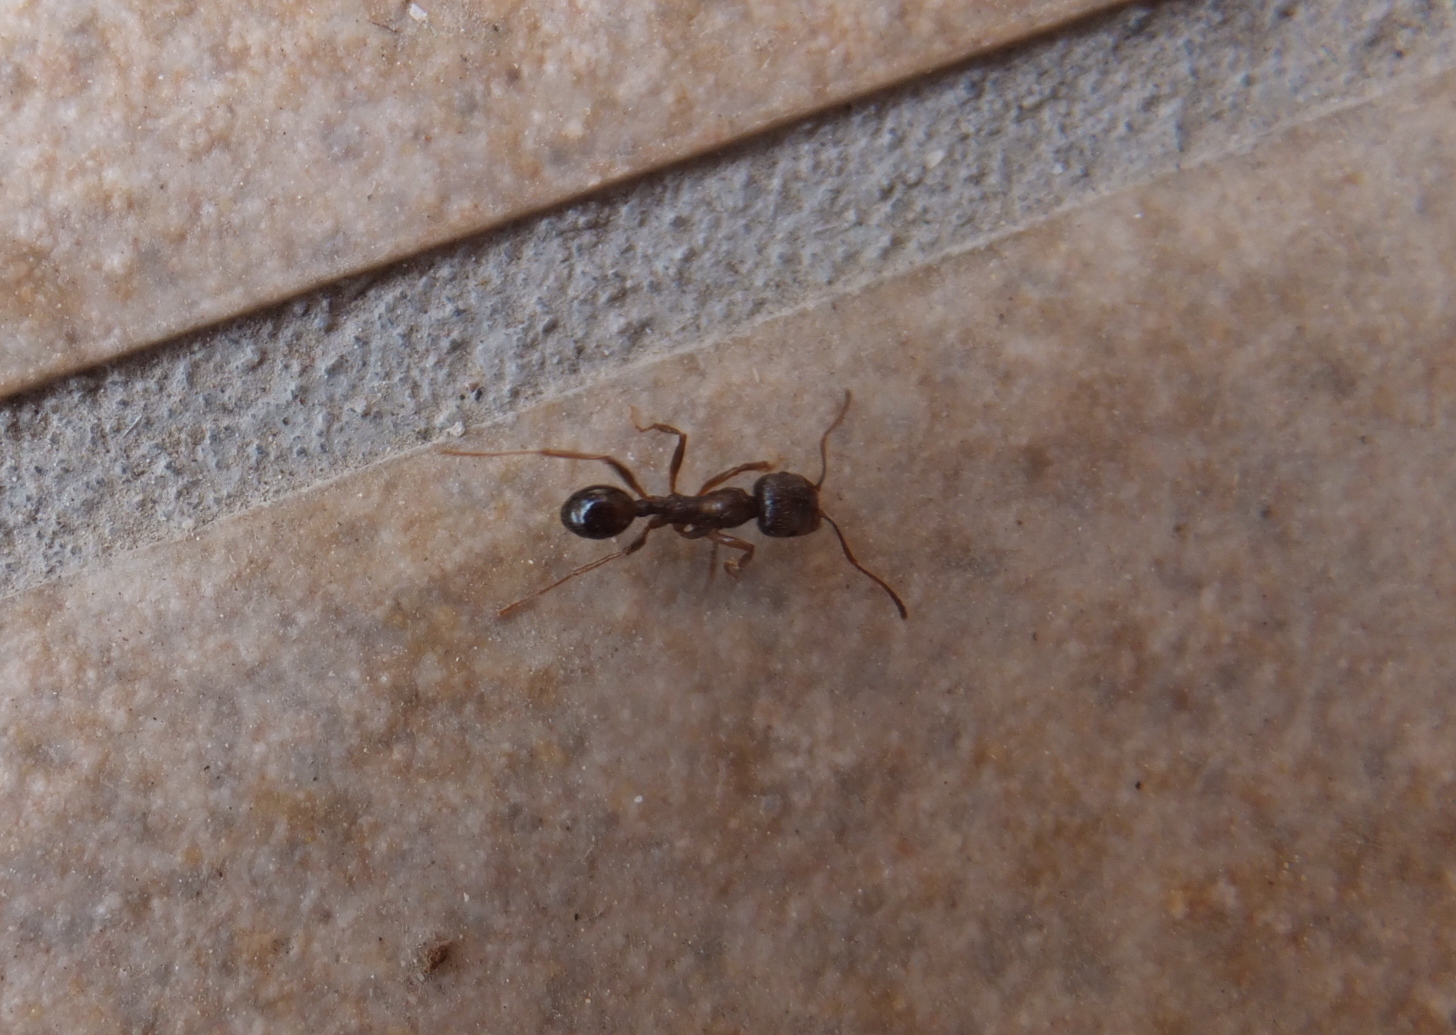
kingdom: Animalia
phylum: Arthropoda
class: Insecta
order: Hymenoptera
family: Formicidae
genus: Messor
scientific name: Messor ibericus
